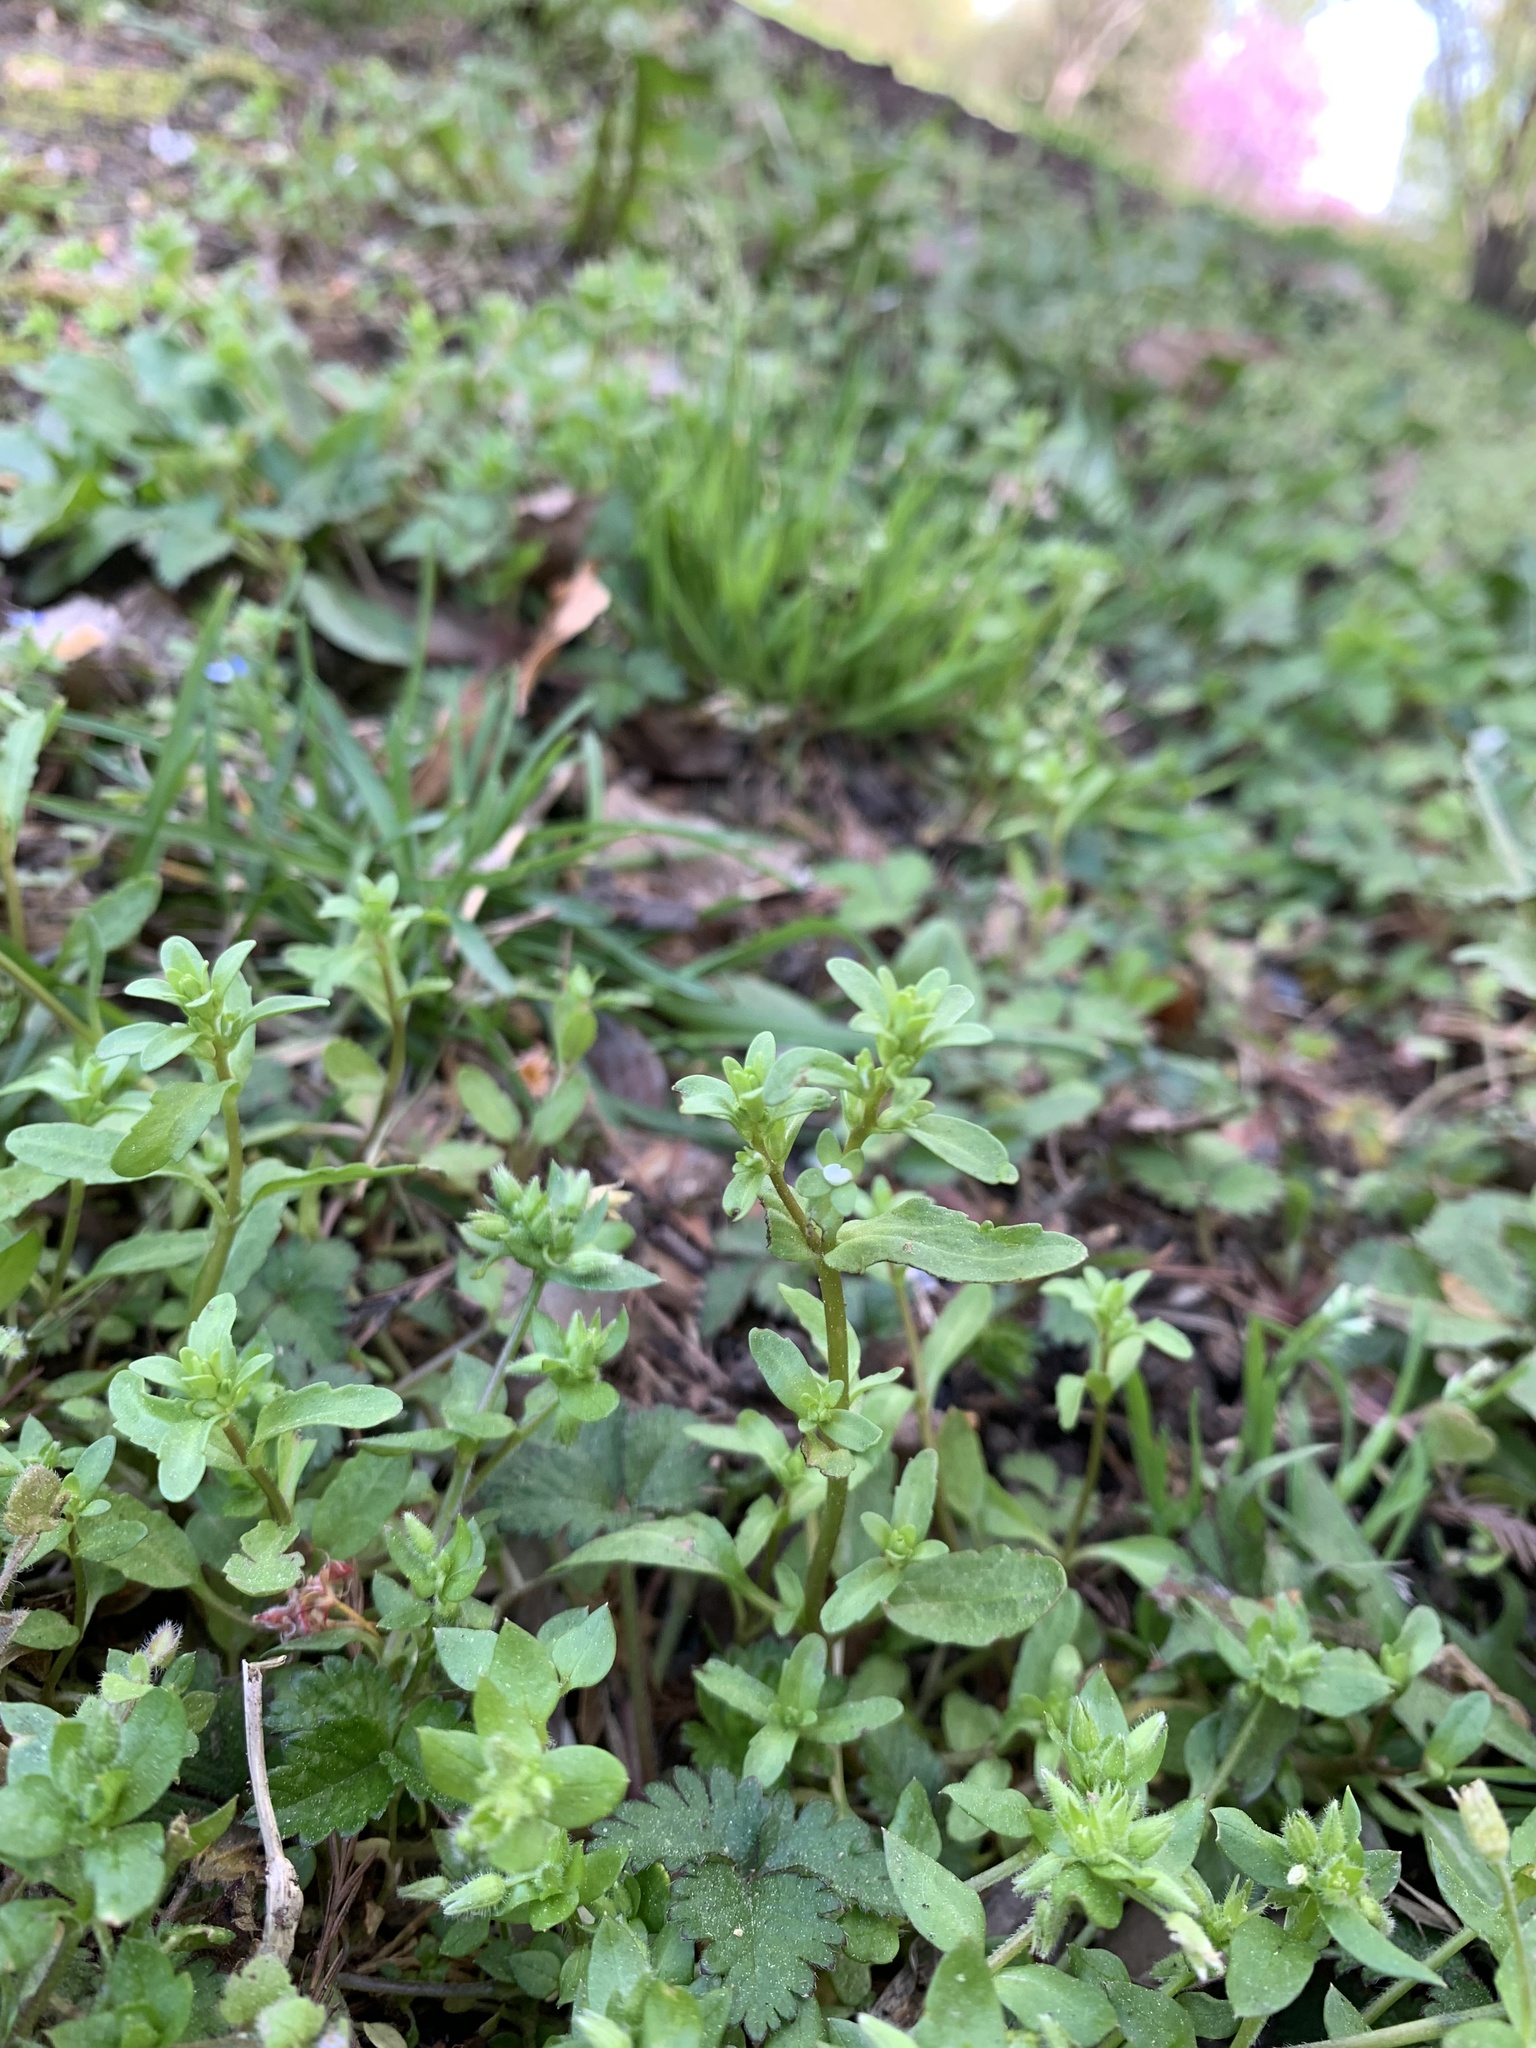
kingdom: Plantae
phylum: Tracheophyta
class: Magnoliopsida
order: Lamiales
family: Plantaginaceae
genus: Veronica
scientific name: Veronica peregrina
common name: Neckweed
